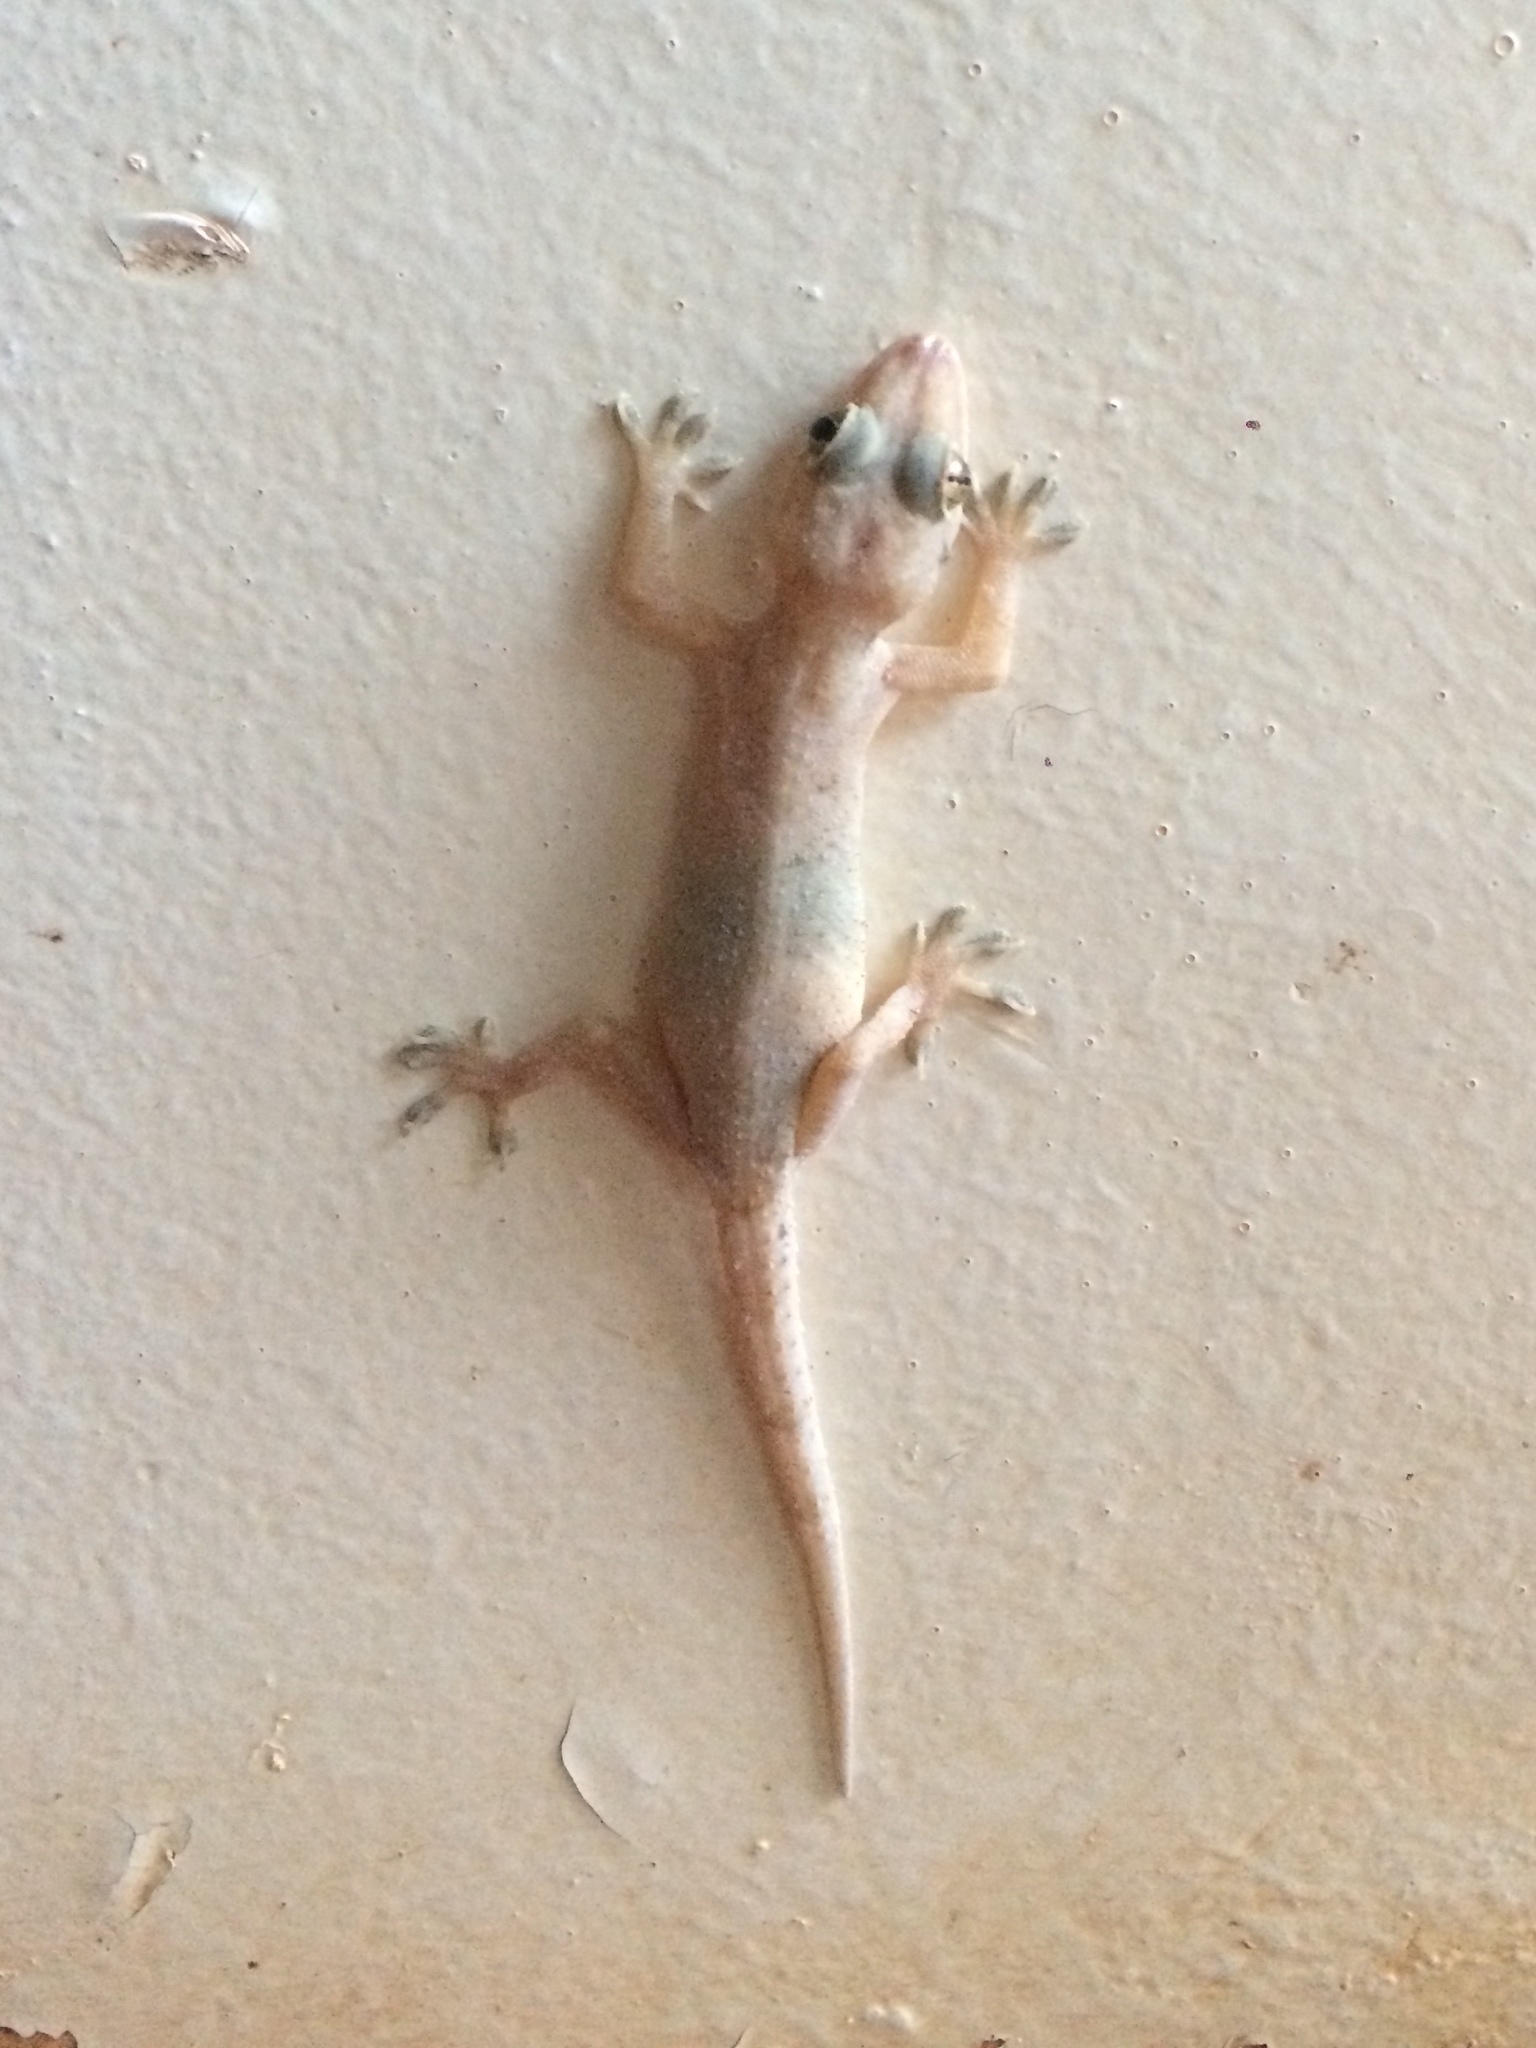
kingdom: Animalia
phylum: Chordata
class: Squamata
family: Gekkonidae
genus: Hemidactylus
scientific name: Hemidactylus mabouia
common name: House gecko
